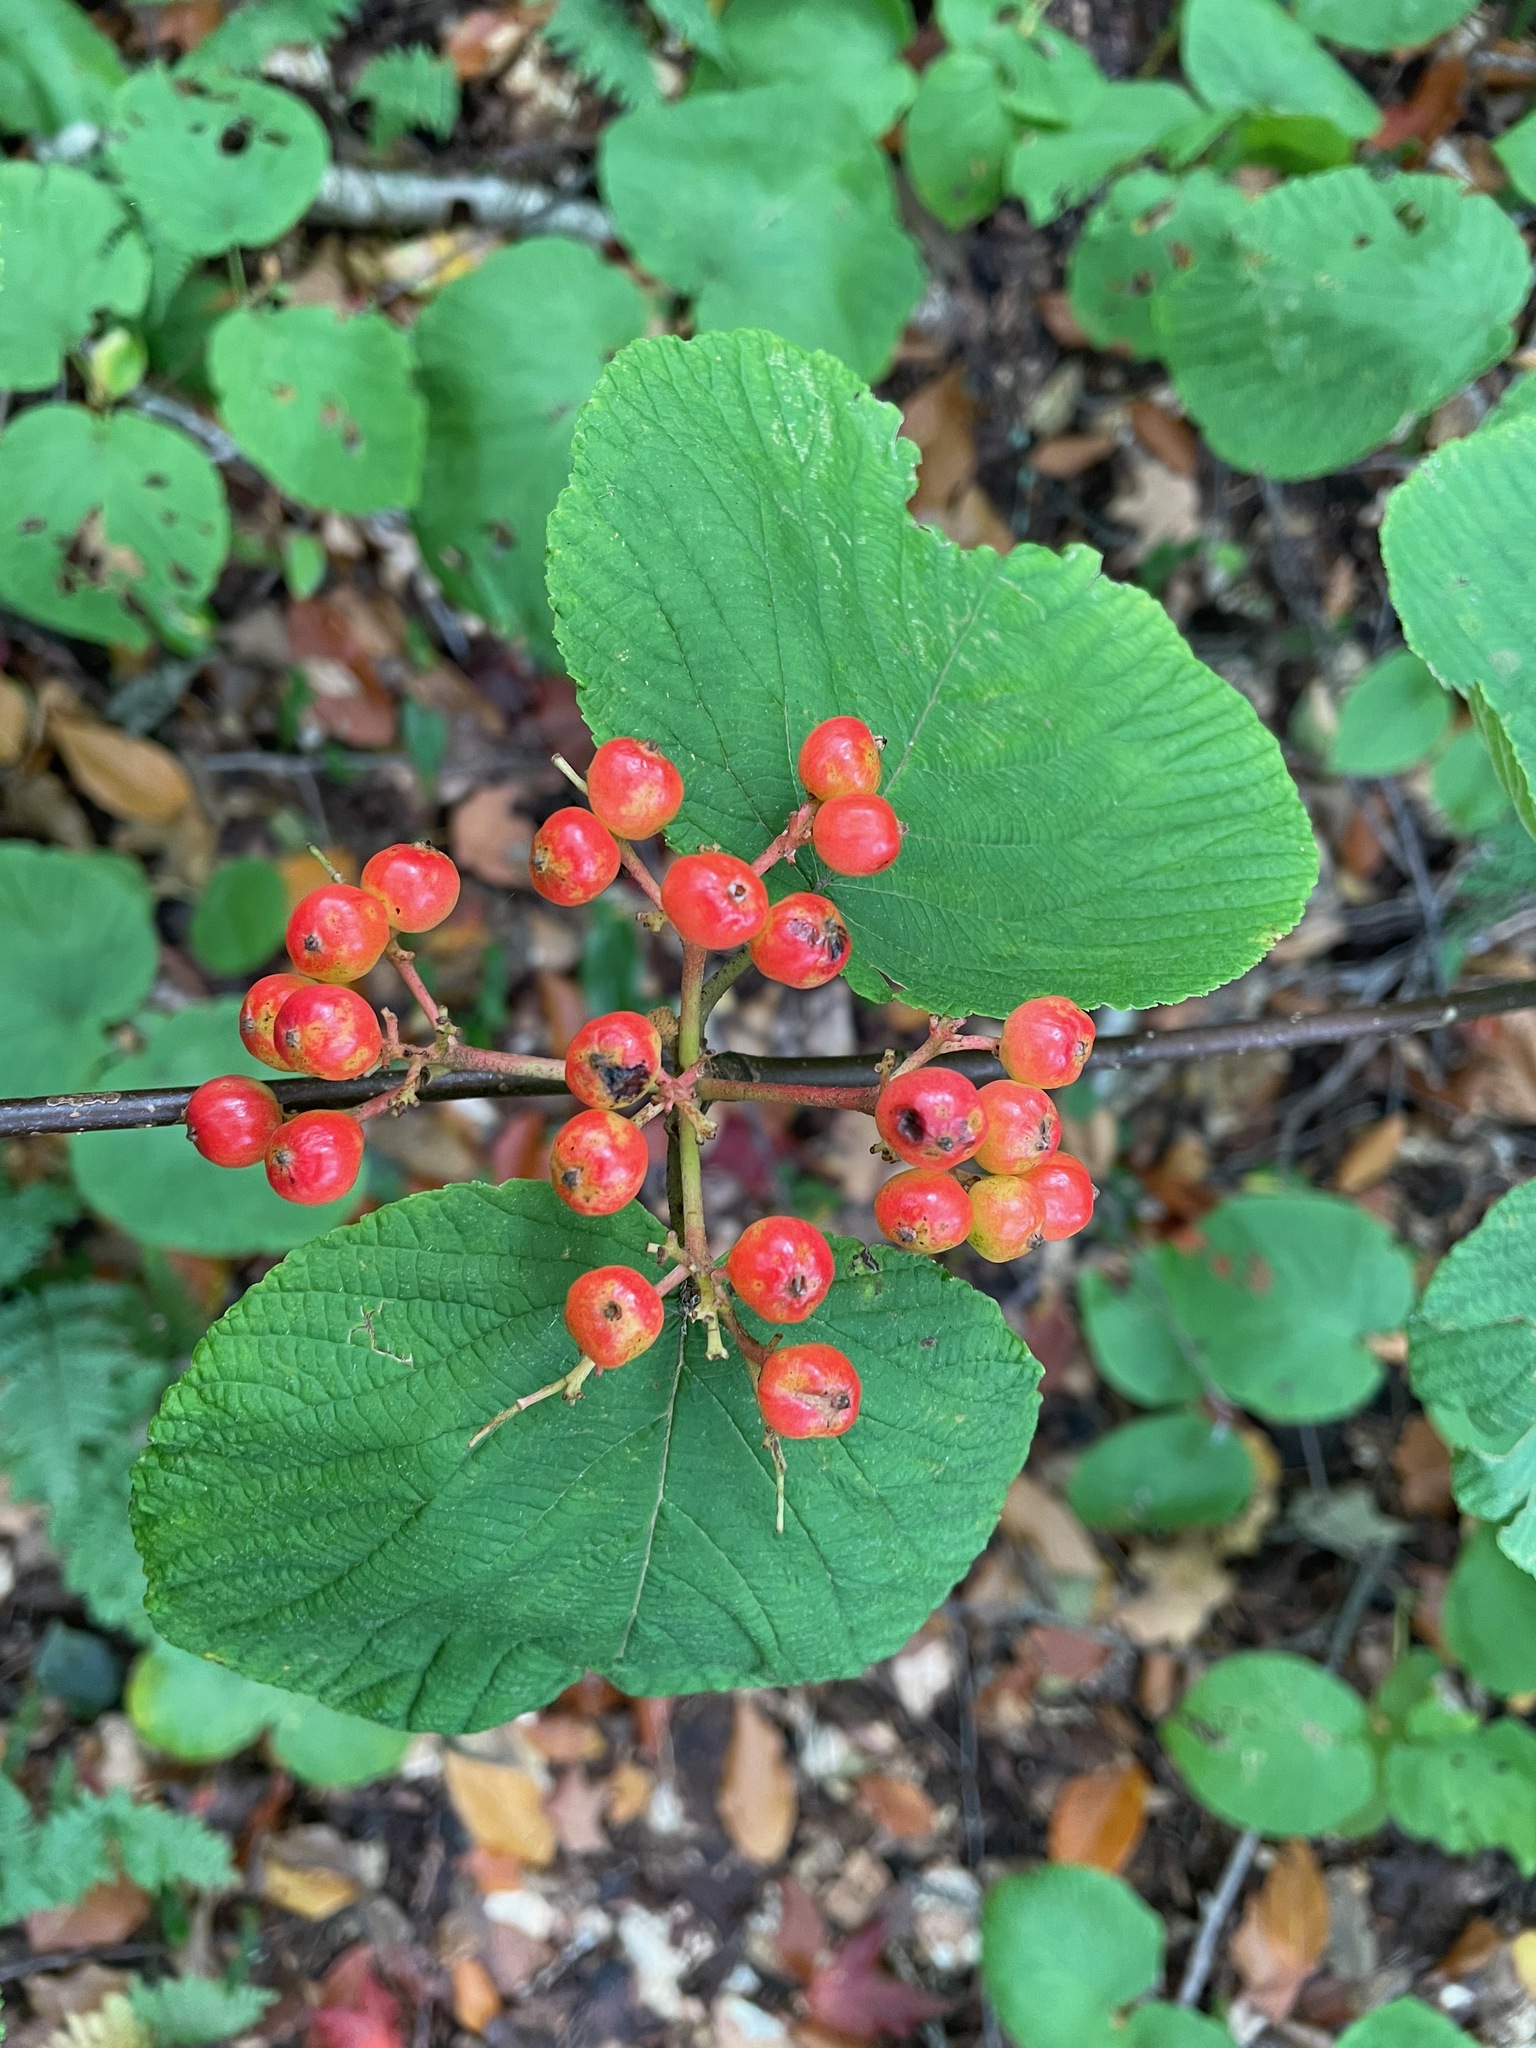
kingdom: Plantae
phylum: Tracheophyta
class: Magnoliopsida
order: Dipsacales
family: Viburnaceae
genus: Viburnum
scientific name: Viburnum lantanoides
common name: Hobblebush
